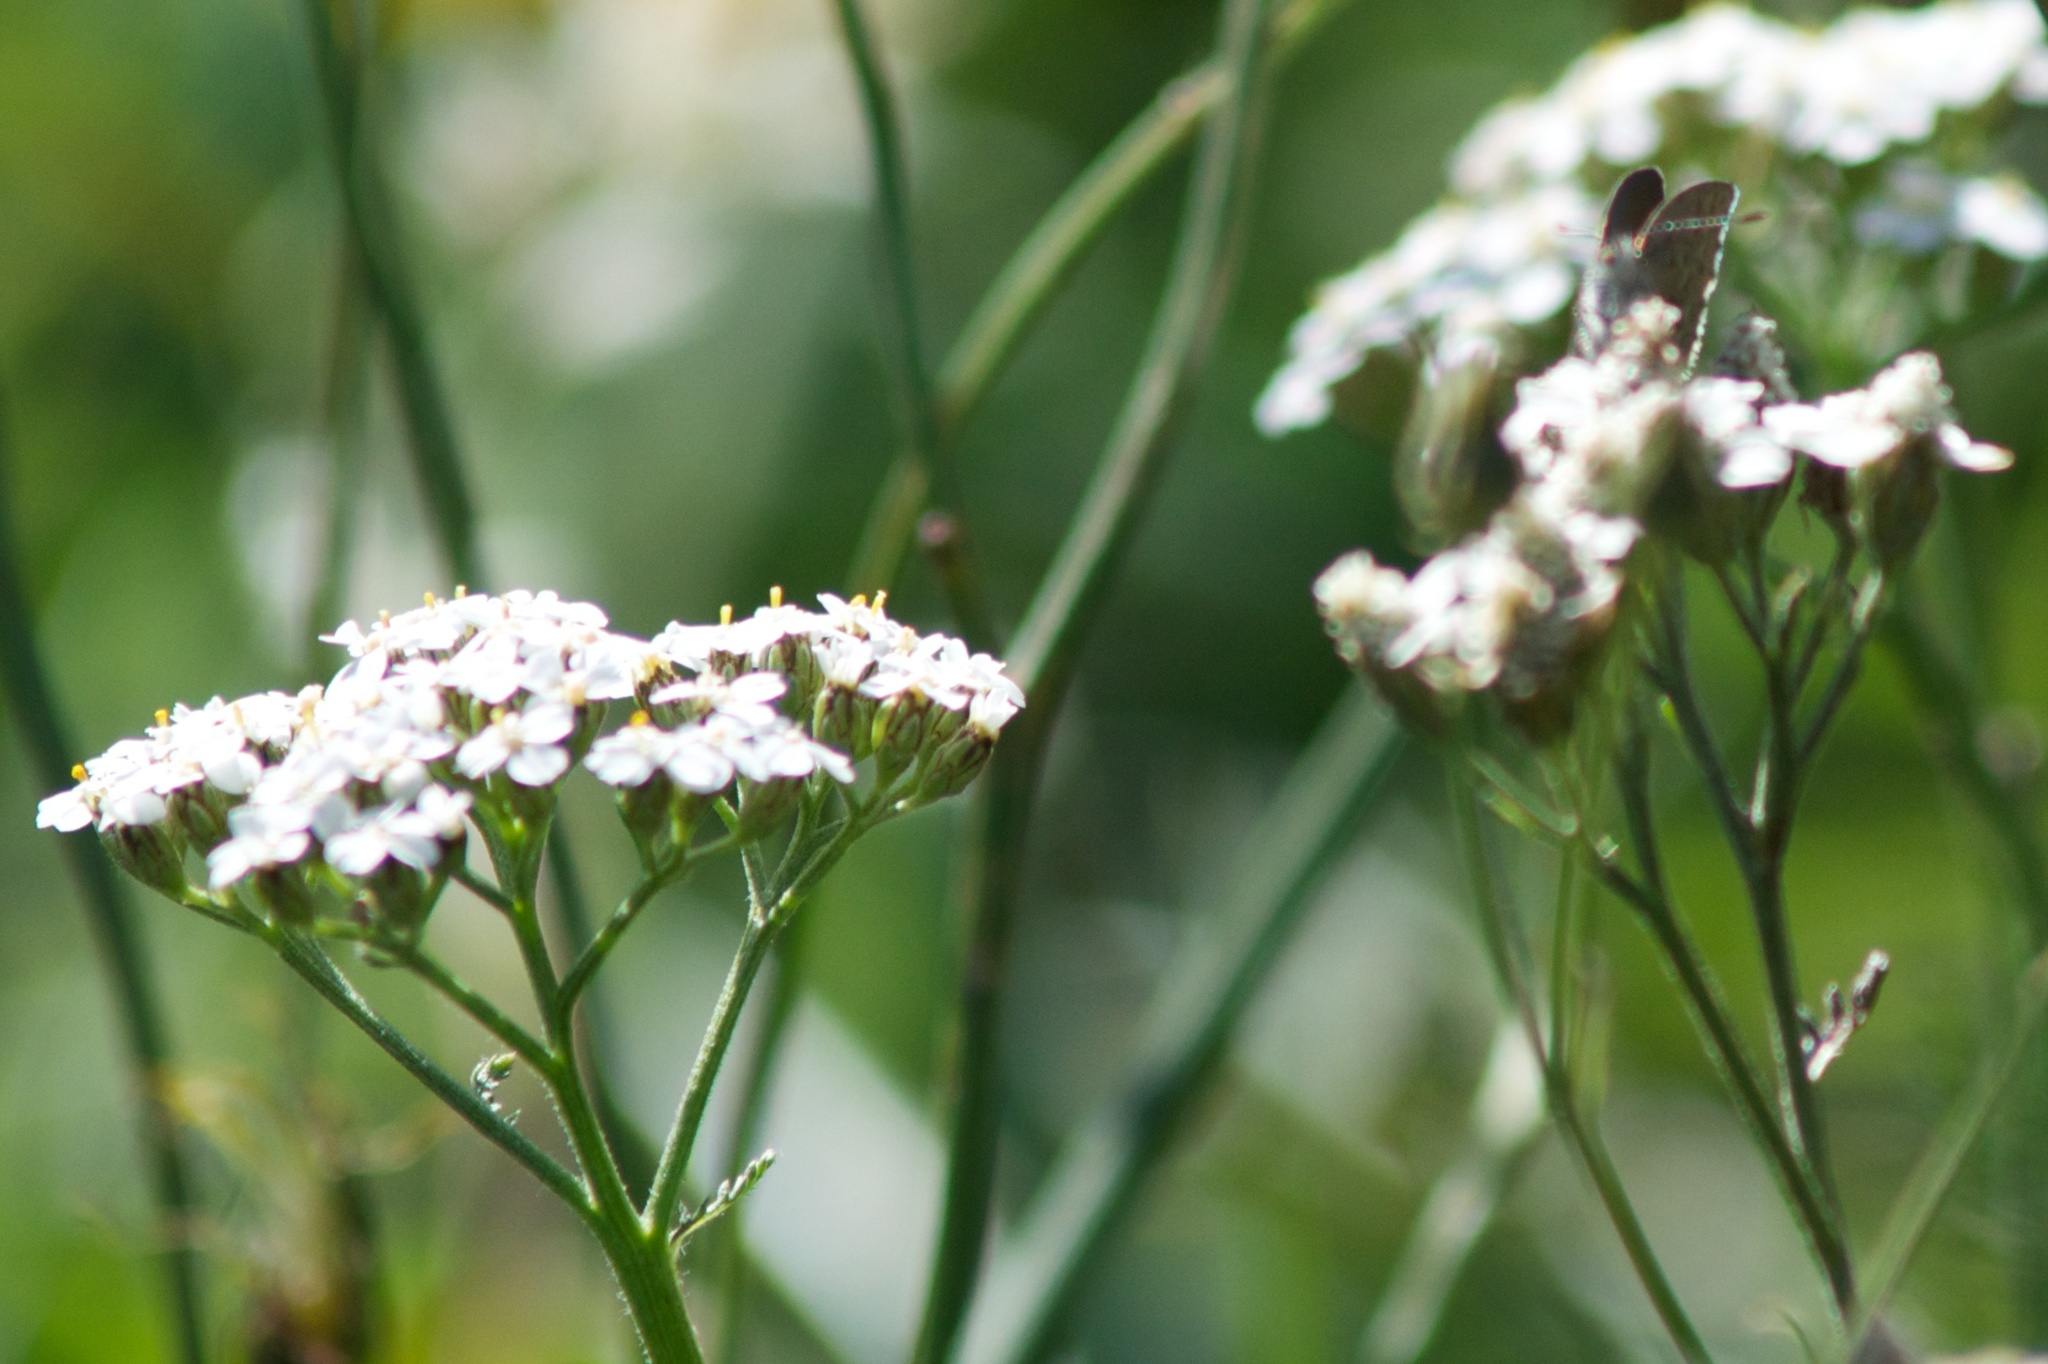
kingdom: Animalia
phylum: Arthropoda
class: Insecta
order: Lepidoptera
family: Lycaenidae
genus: Zizina
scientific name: Zizina labradus
